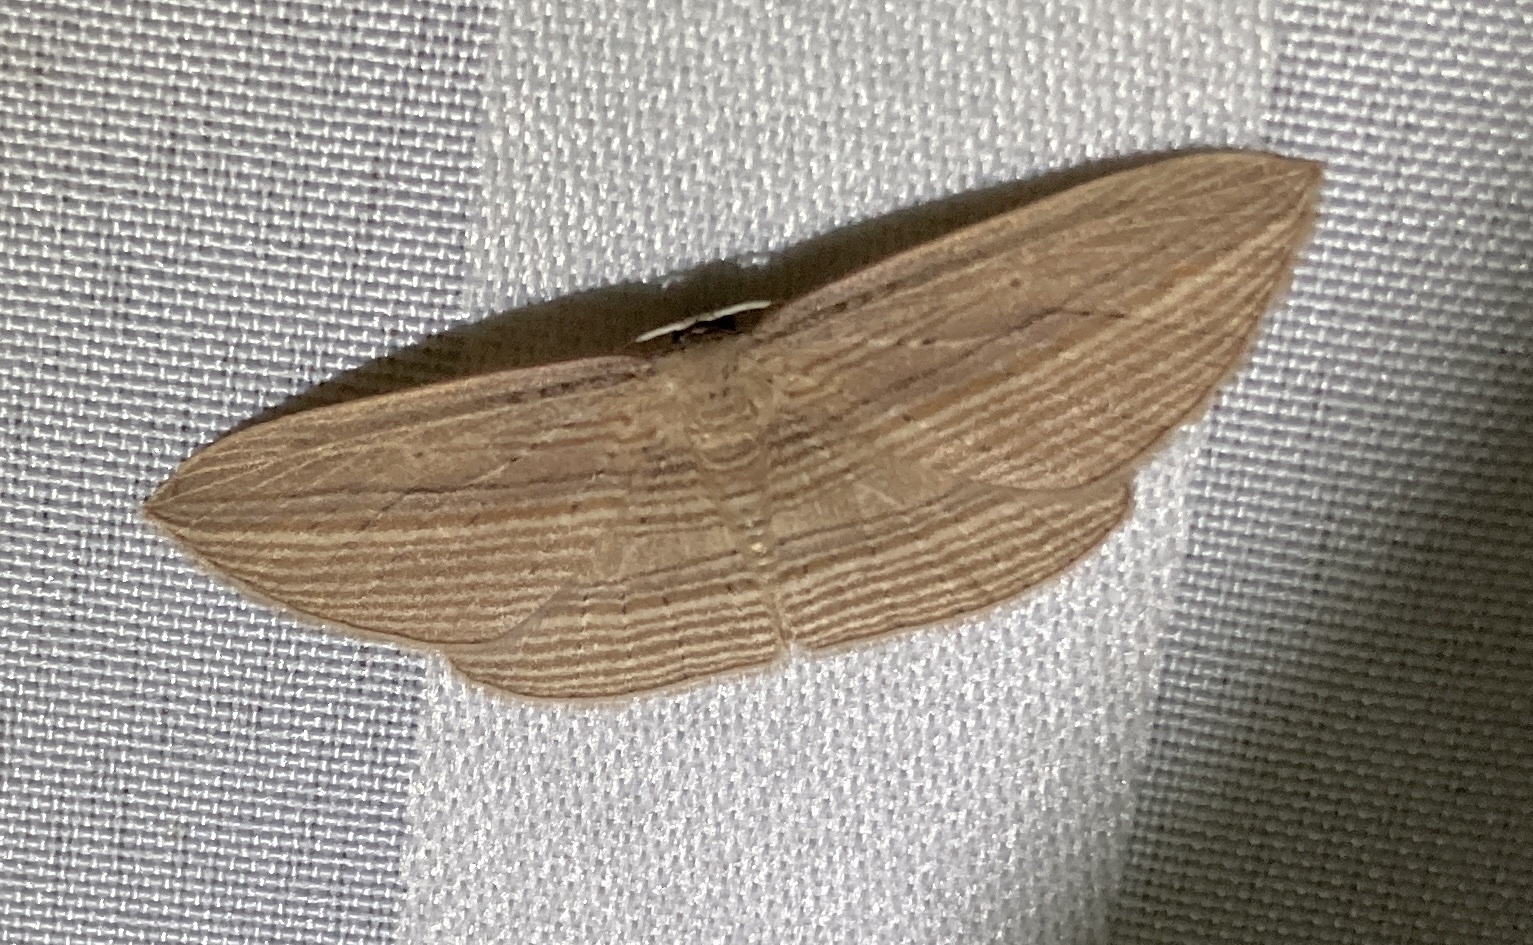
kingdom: Animalia
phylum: Arthropoda
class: Insecta
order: Lepidoptera
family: Geometridae
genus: Epiphryne
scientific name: Epiphryne verriculata
